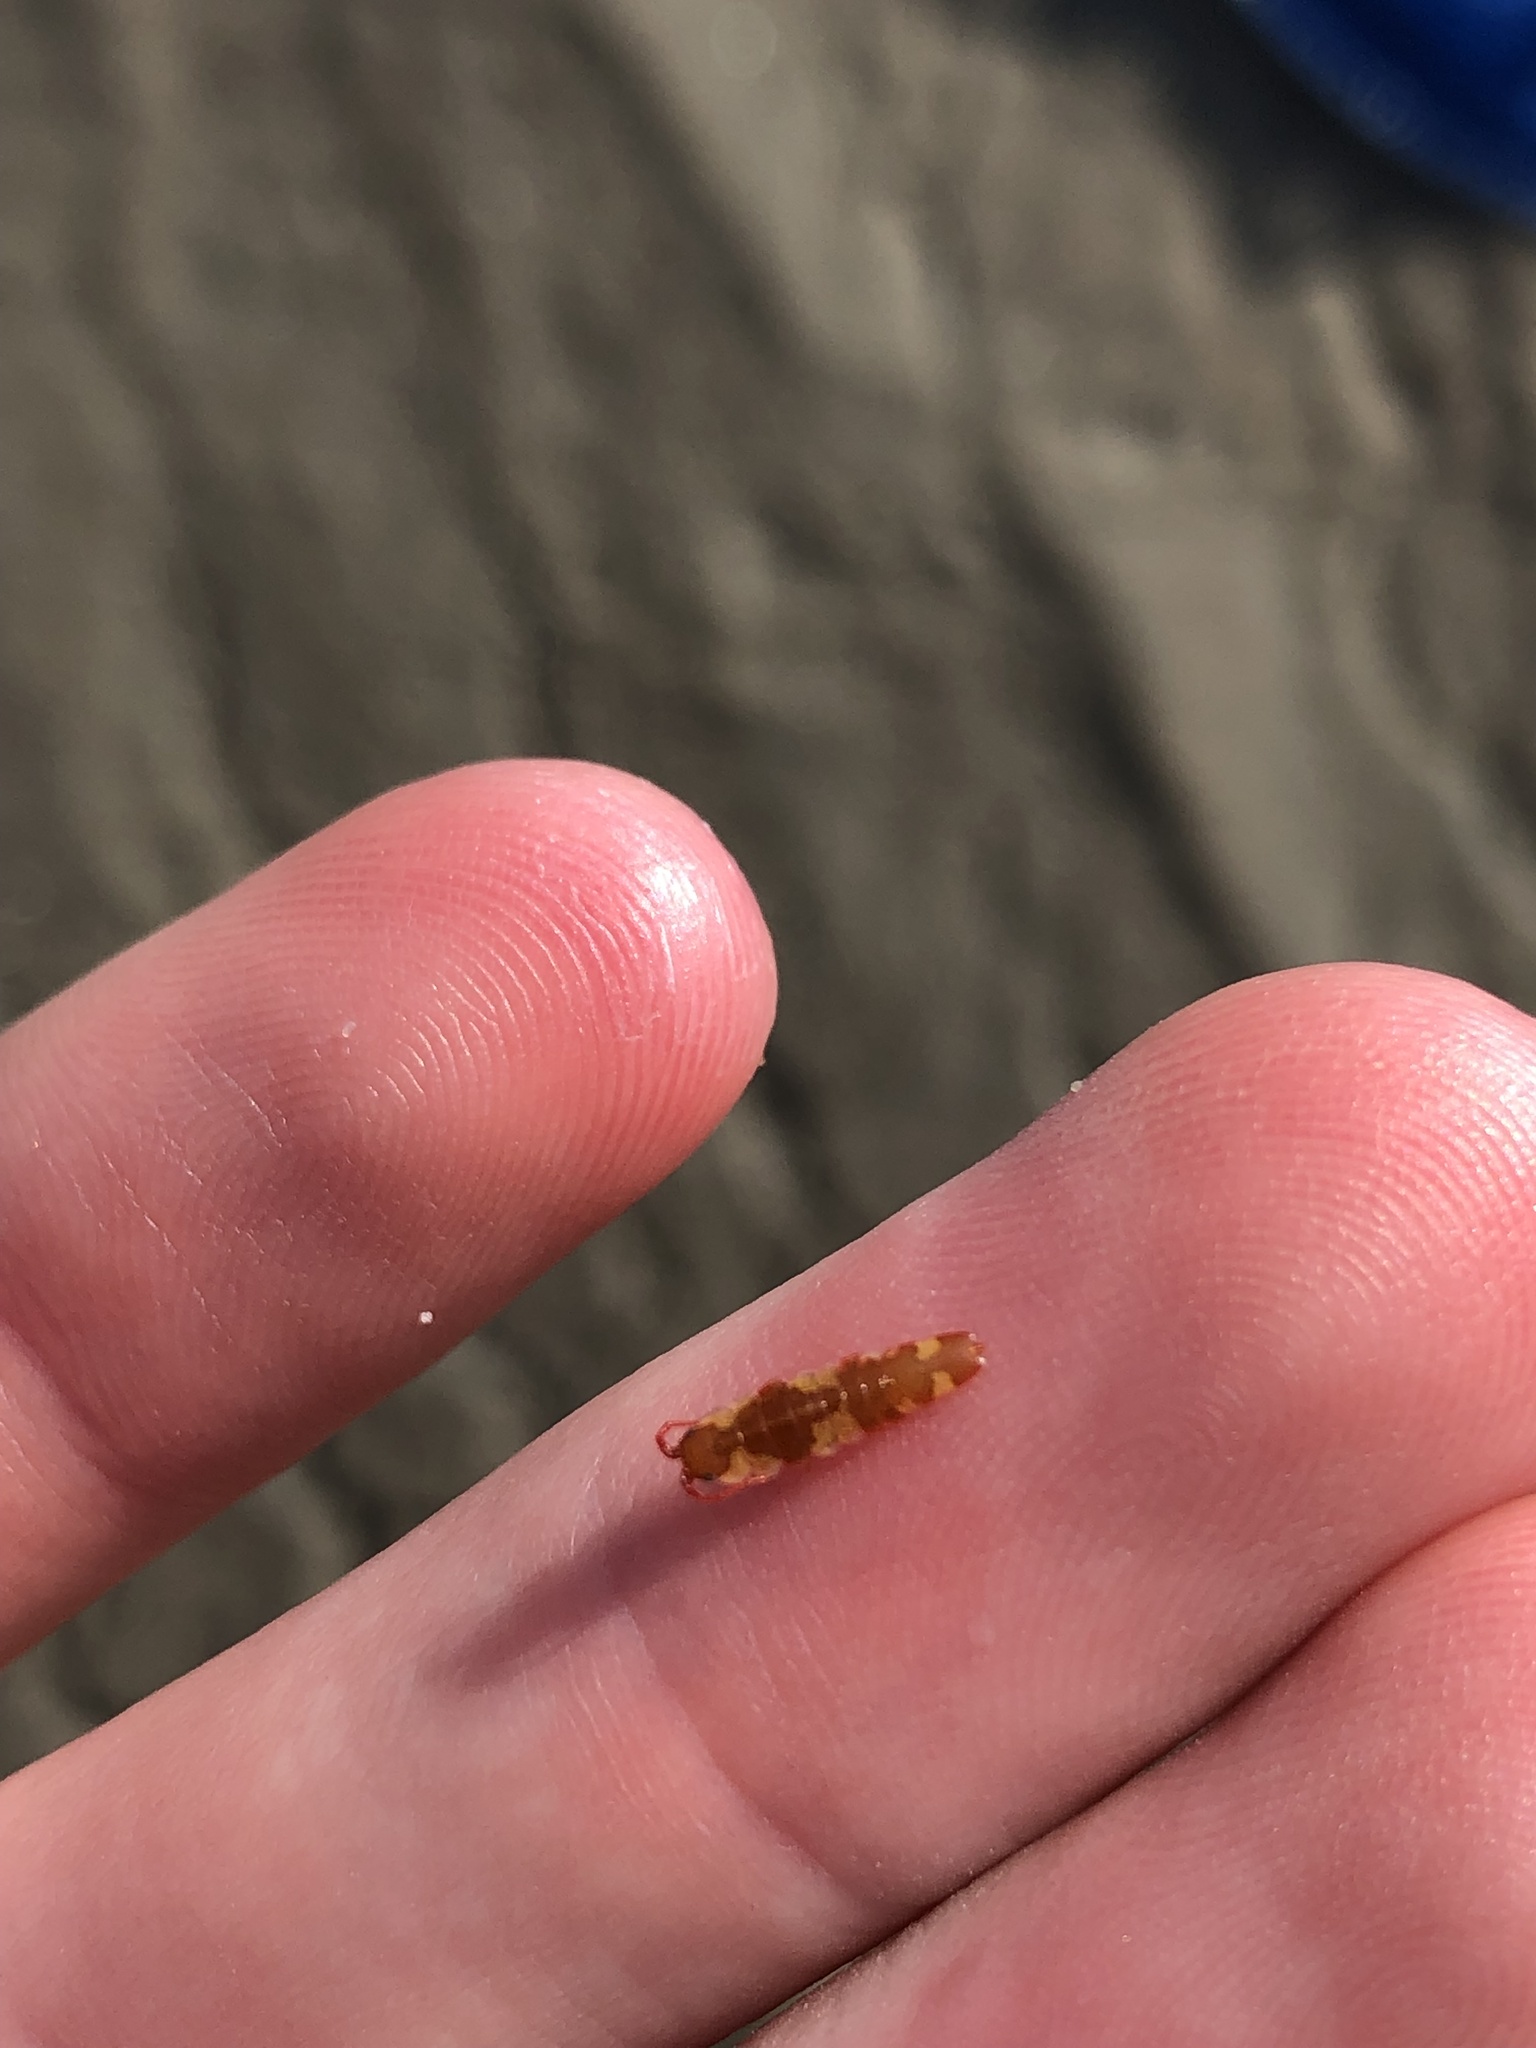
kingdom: Animalia
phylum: Arthropoda
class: Malacostraca
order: Isopoda
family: Idoteidae
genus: Idotea
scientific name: Idotea balthica
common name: Baltic isopod
